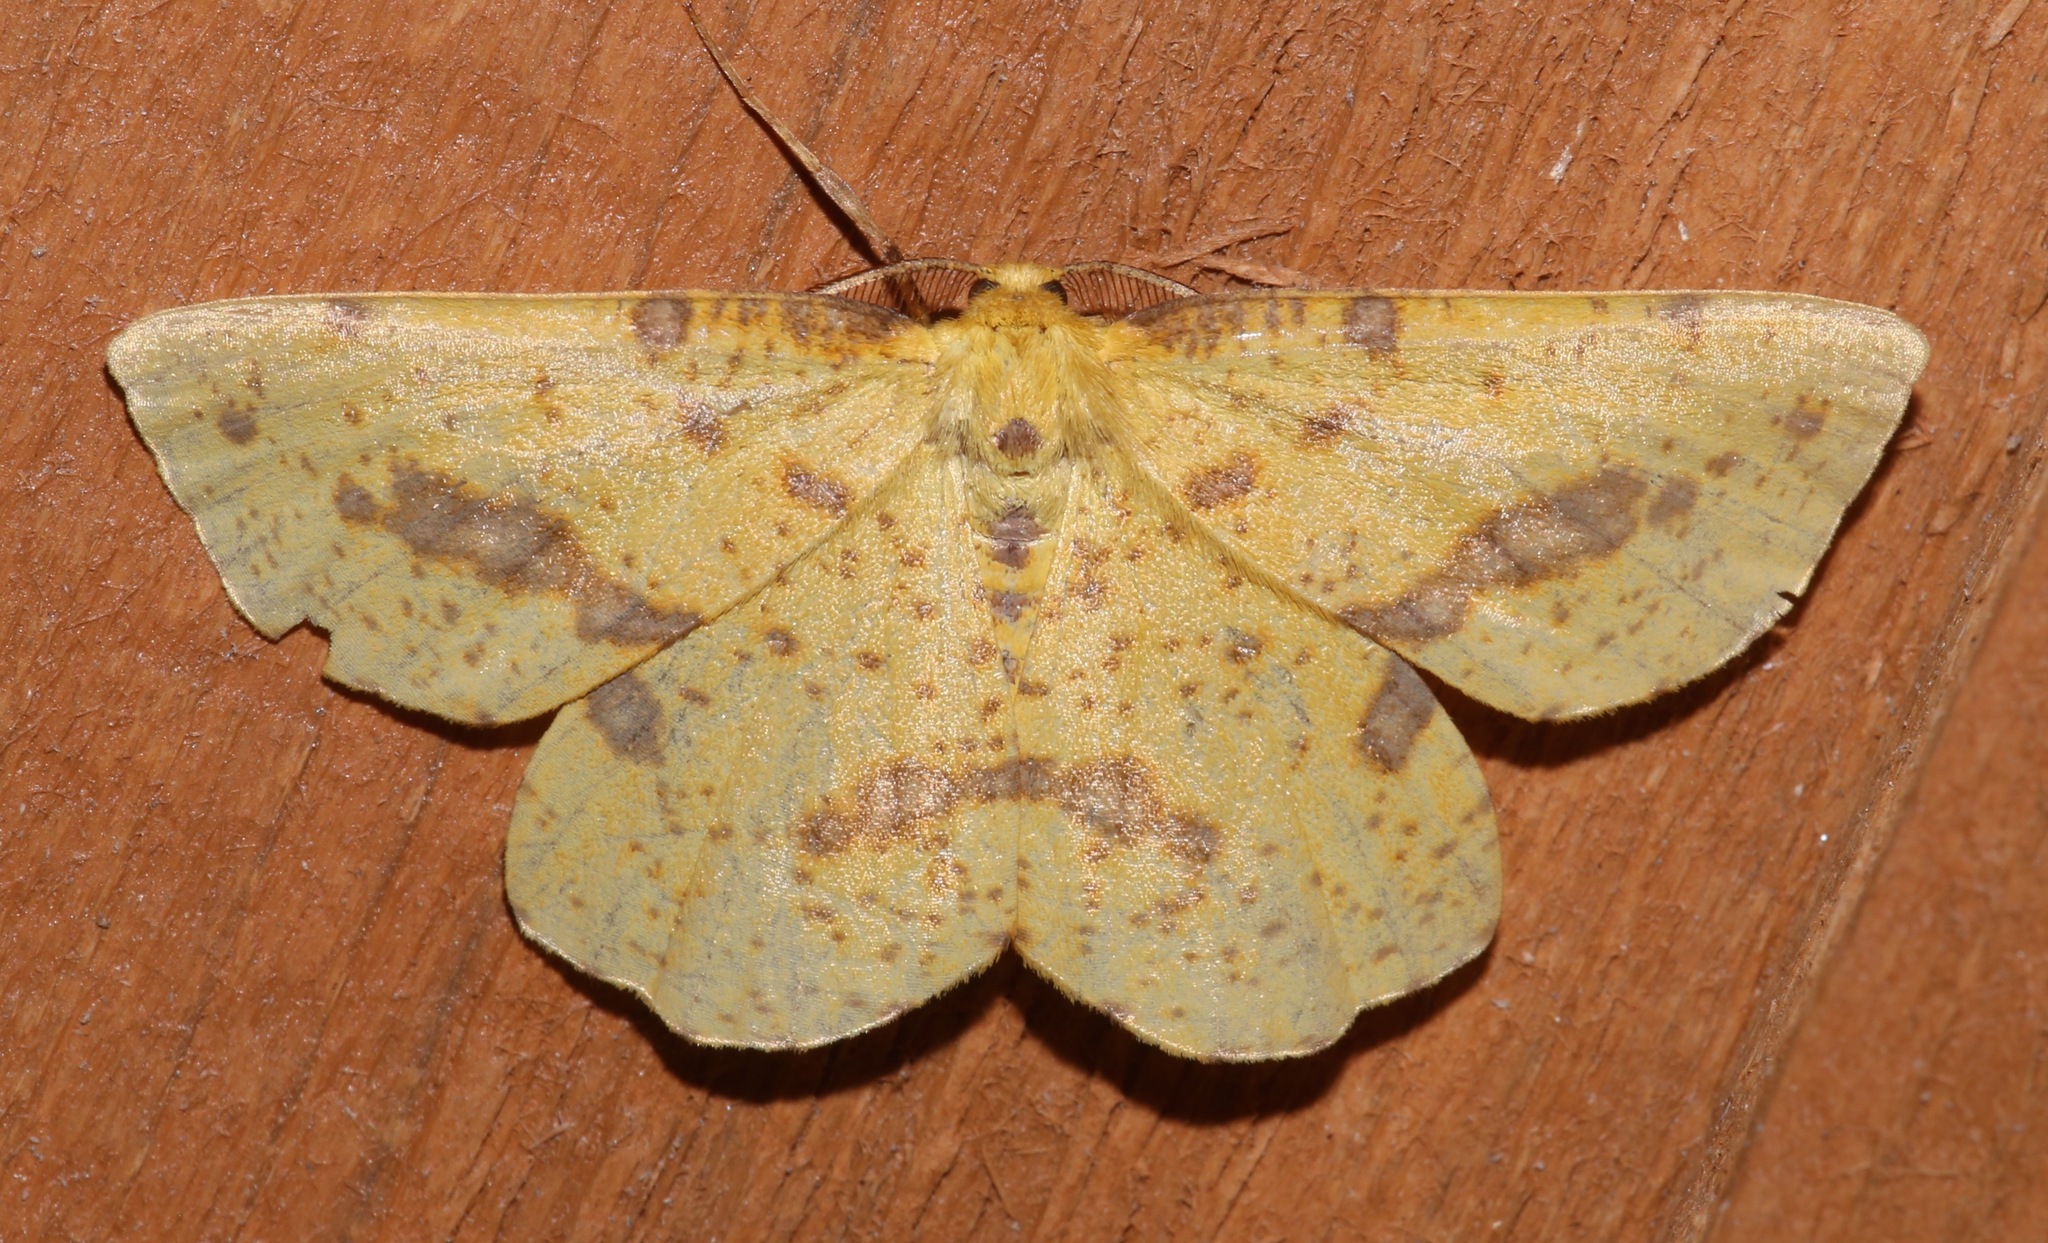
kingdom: Animalia
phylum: Arthropoda
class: Insecta
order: Lepidoptera
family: Geometridae
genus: Xanthotype
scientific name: Xanthotype
